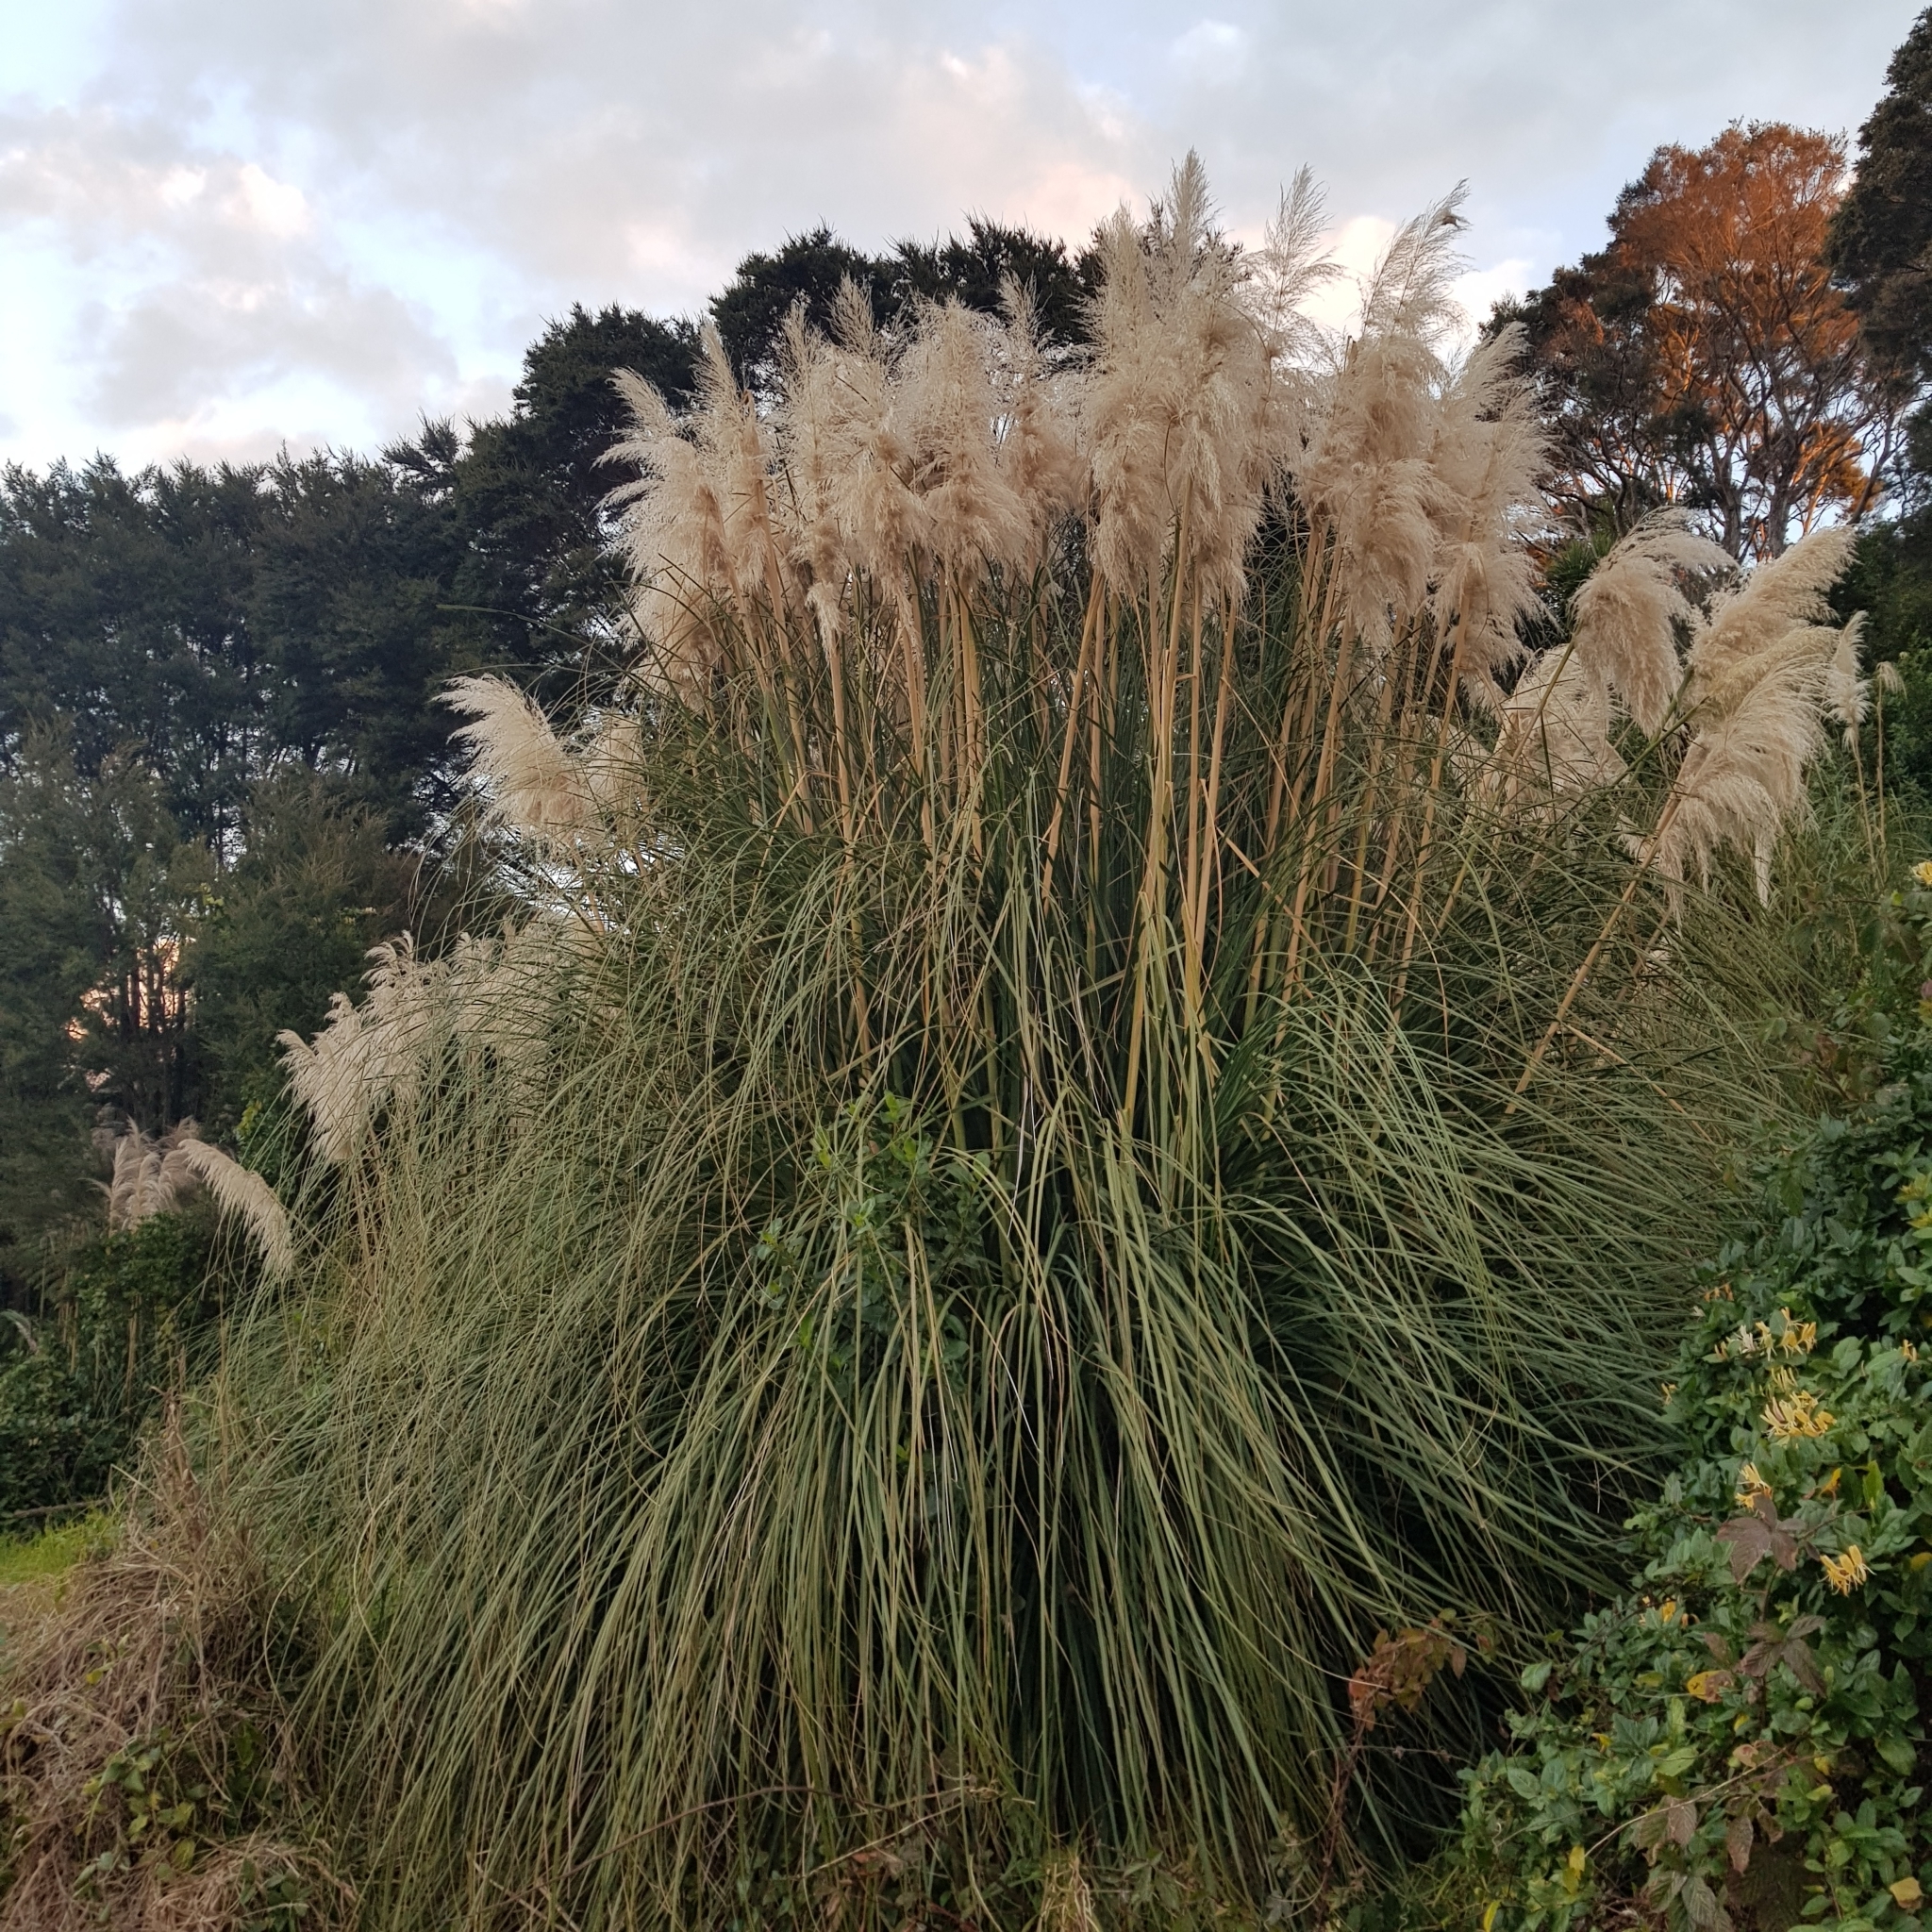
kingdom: Plantae
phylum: Tracheophyta
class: Liliopsida
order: Poales
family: Poaceae
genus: Cortaderia
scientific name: Cortaderia selloana
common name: Uruguayan pampas grass
